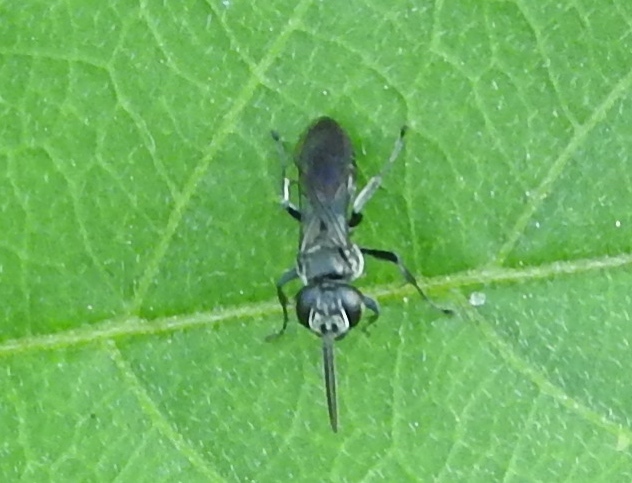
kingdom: Animalia
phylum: Arthropoda
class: Insecta
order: Hymenoptera
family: Crabronidae
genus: Liris
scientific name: Liris
